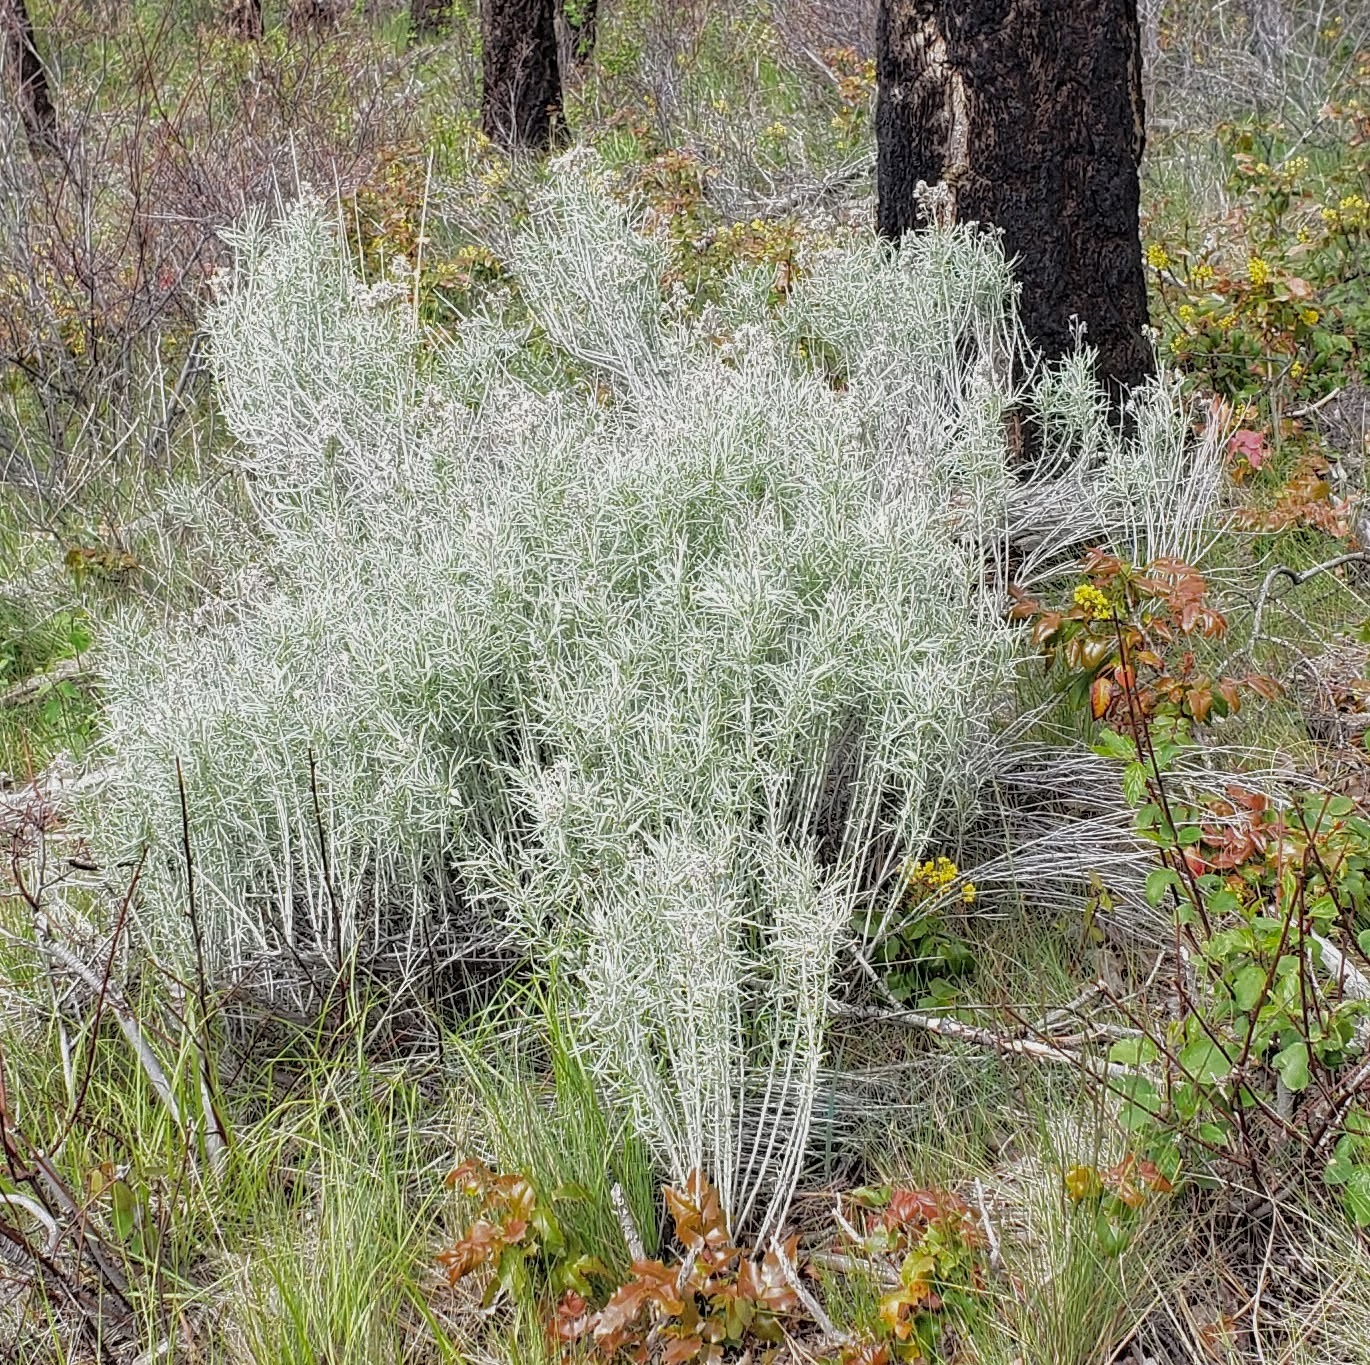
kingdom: Plantae
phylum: Tracheophyta
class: Magnoliopsida
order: Asterales
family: Asteraceae
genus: Ericameria
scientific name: Ericameria nauseosa
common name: Rubber rabbitbrush
